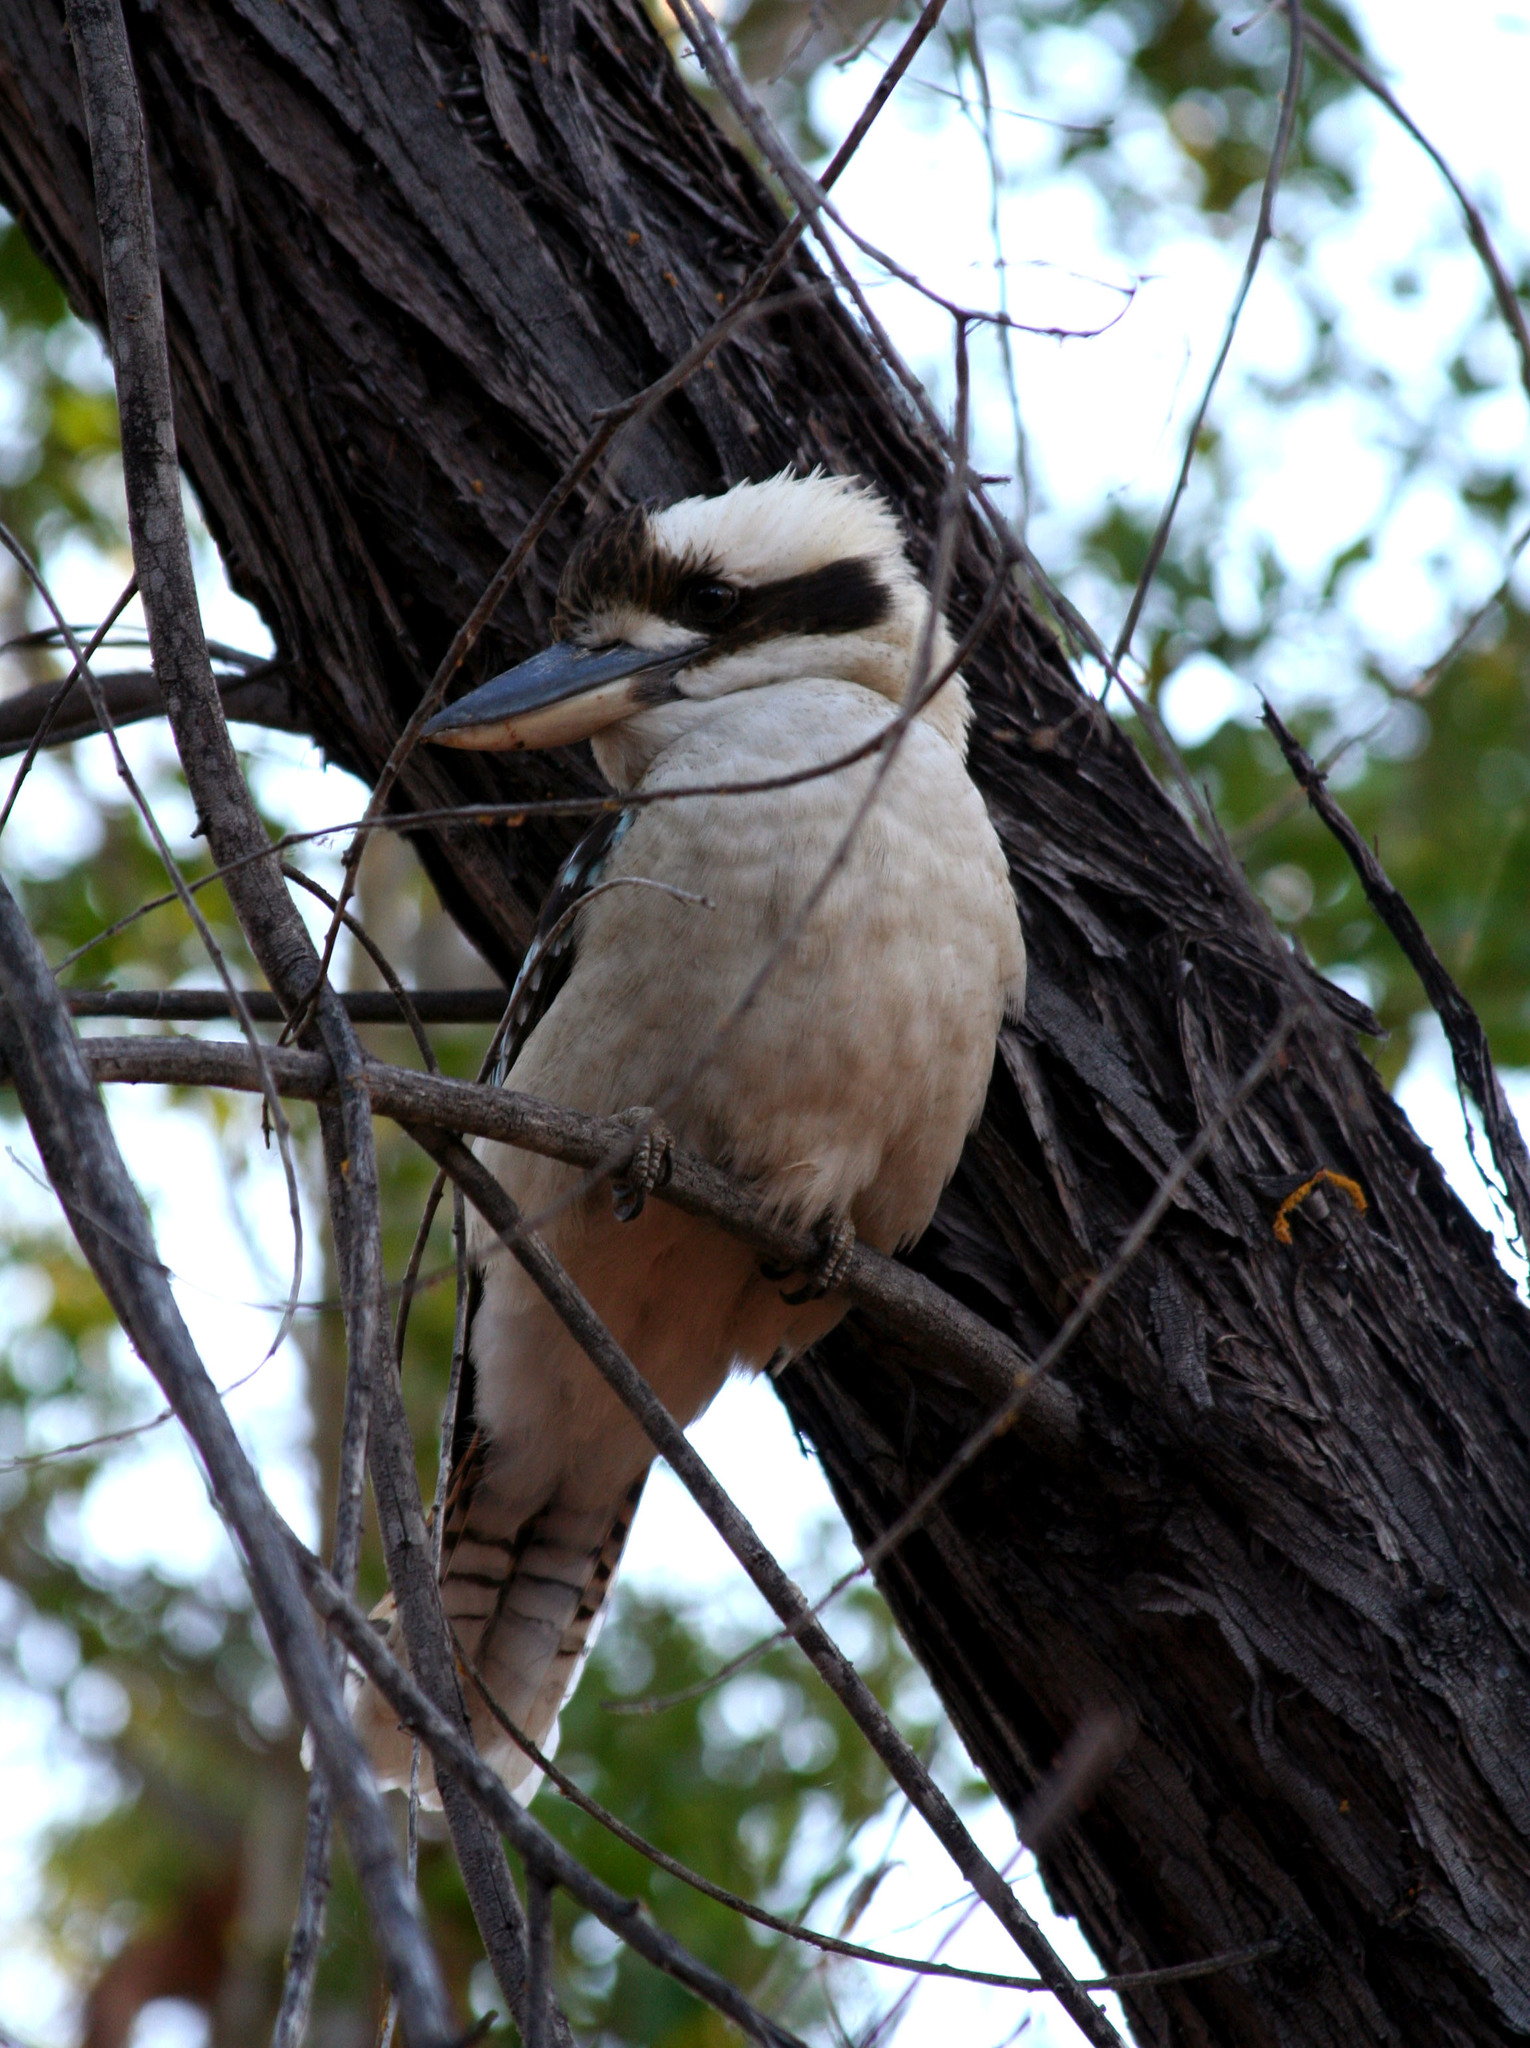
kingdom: Animalia
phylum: Chordata
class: Aves
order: Coraciiformes
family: Alcedinidae
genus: Dacelo
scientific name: Dacelo novaeguineae
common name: Laughing kookaburra
